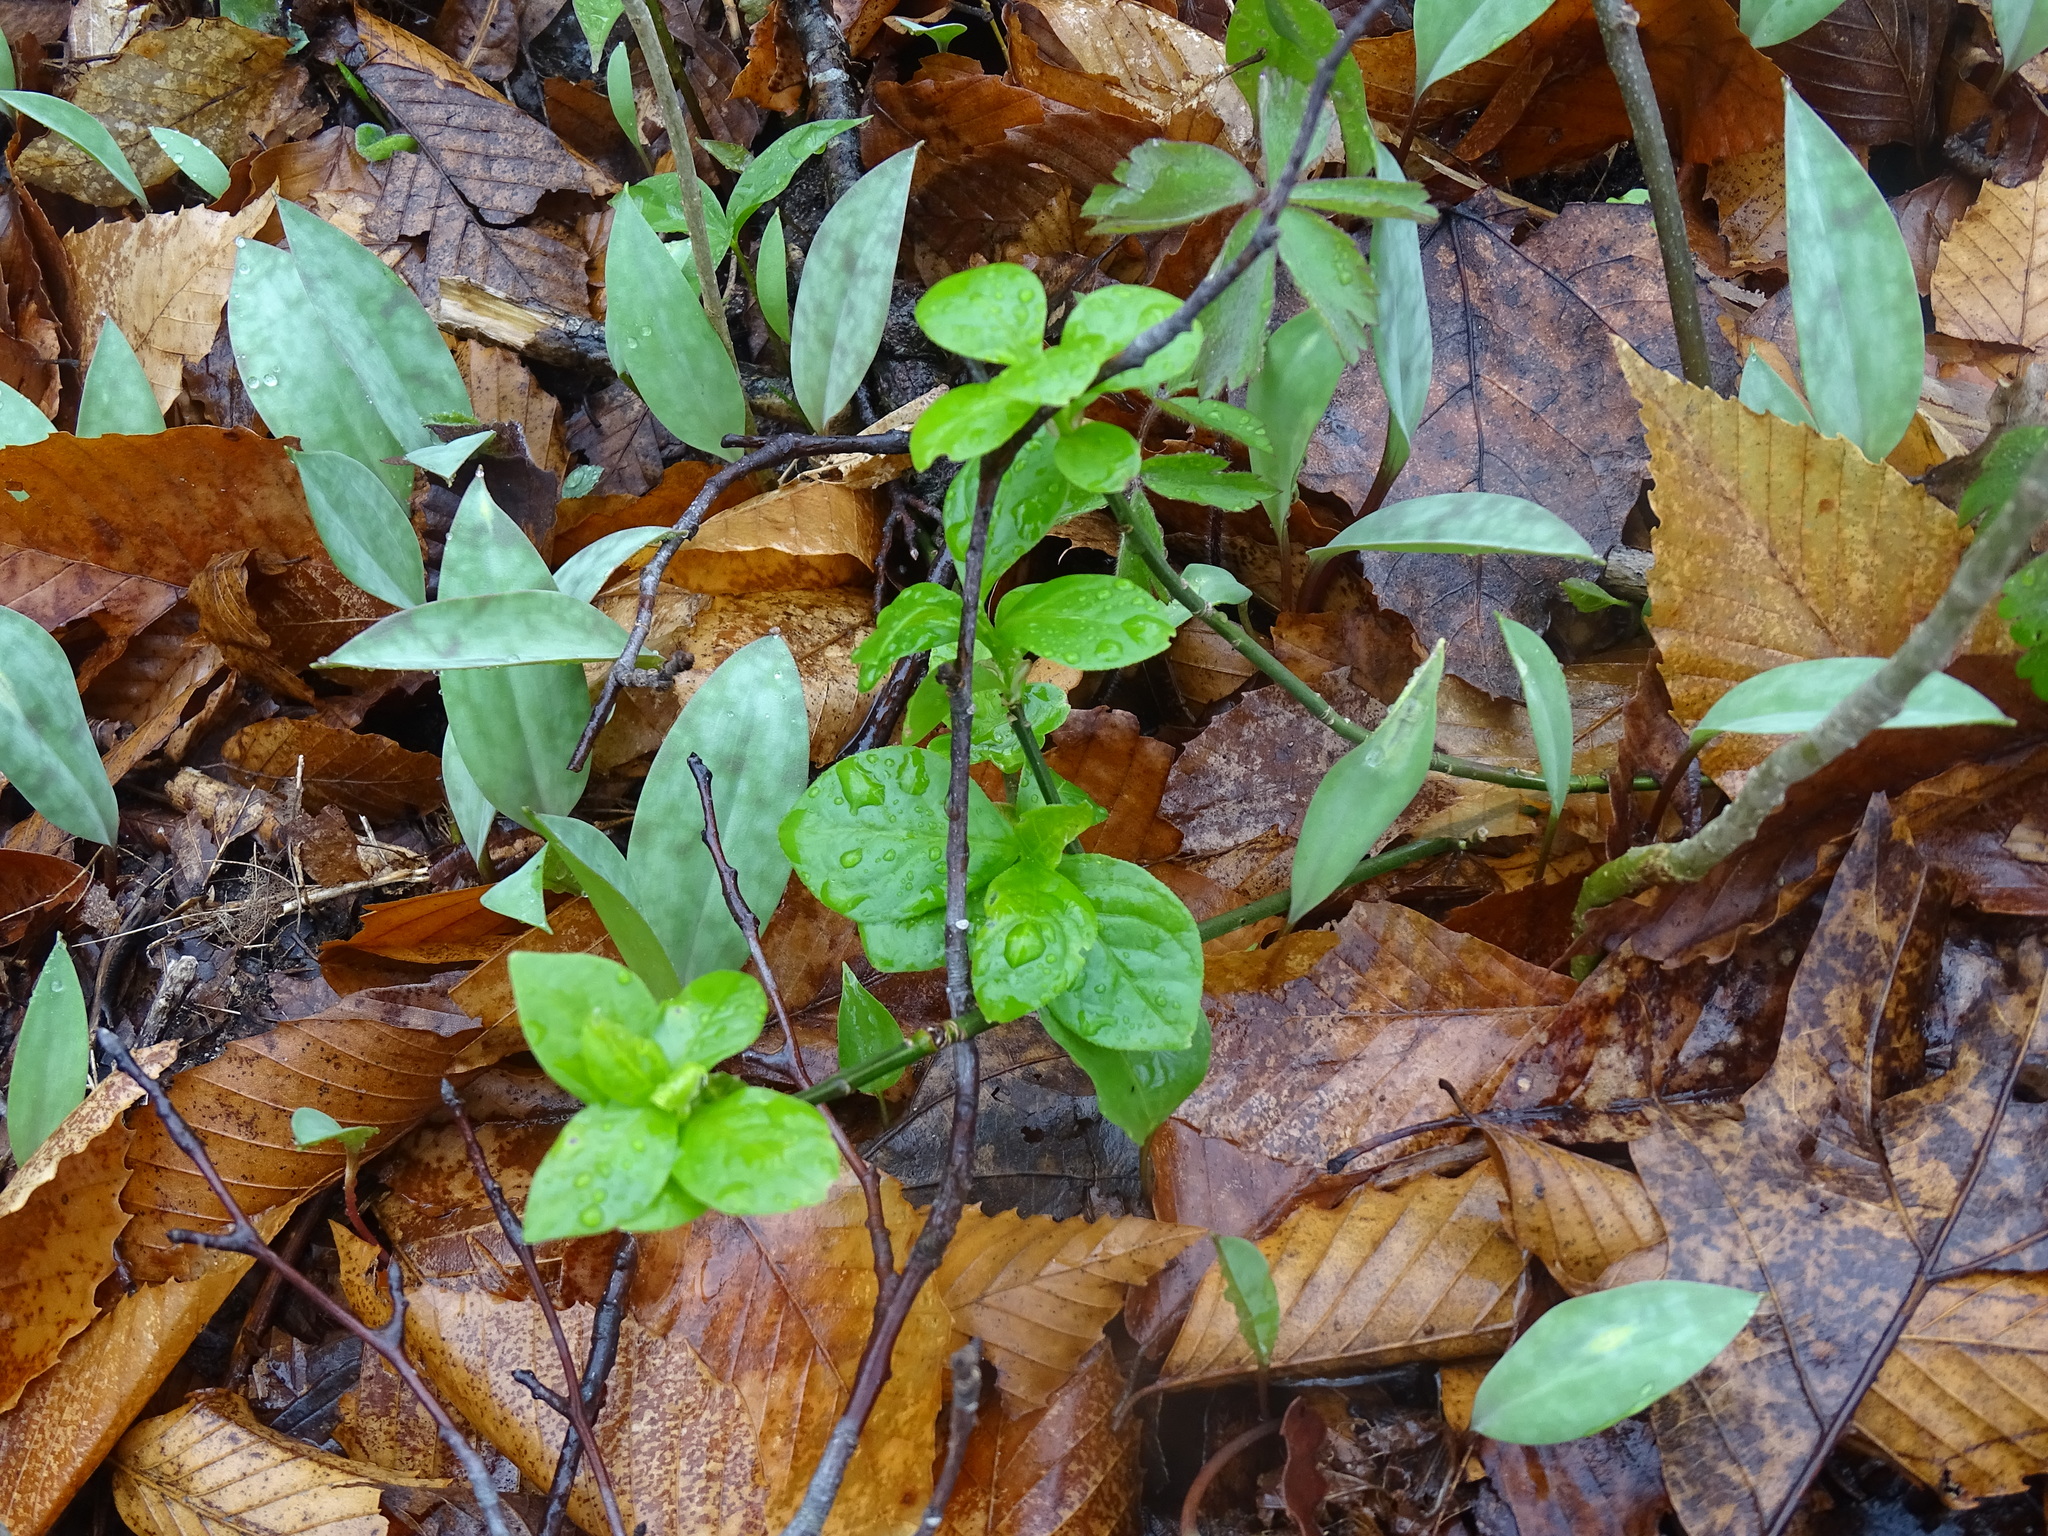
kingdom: Plantae
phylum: Tracheophyta
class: Magnoliopsida
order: Celastrales
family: Celastraceae
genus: Euonymus
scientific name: Euonymus obovatus
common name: Running strawberry-bush
